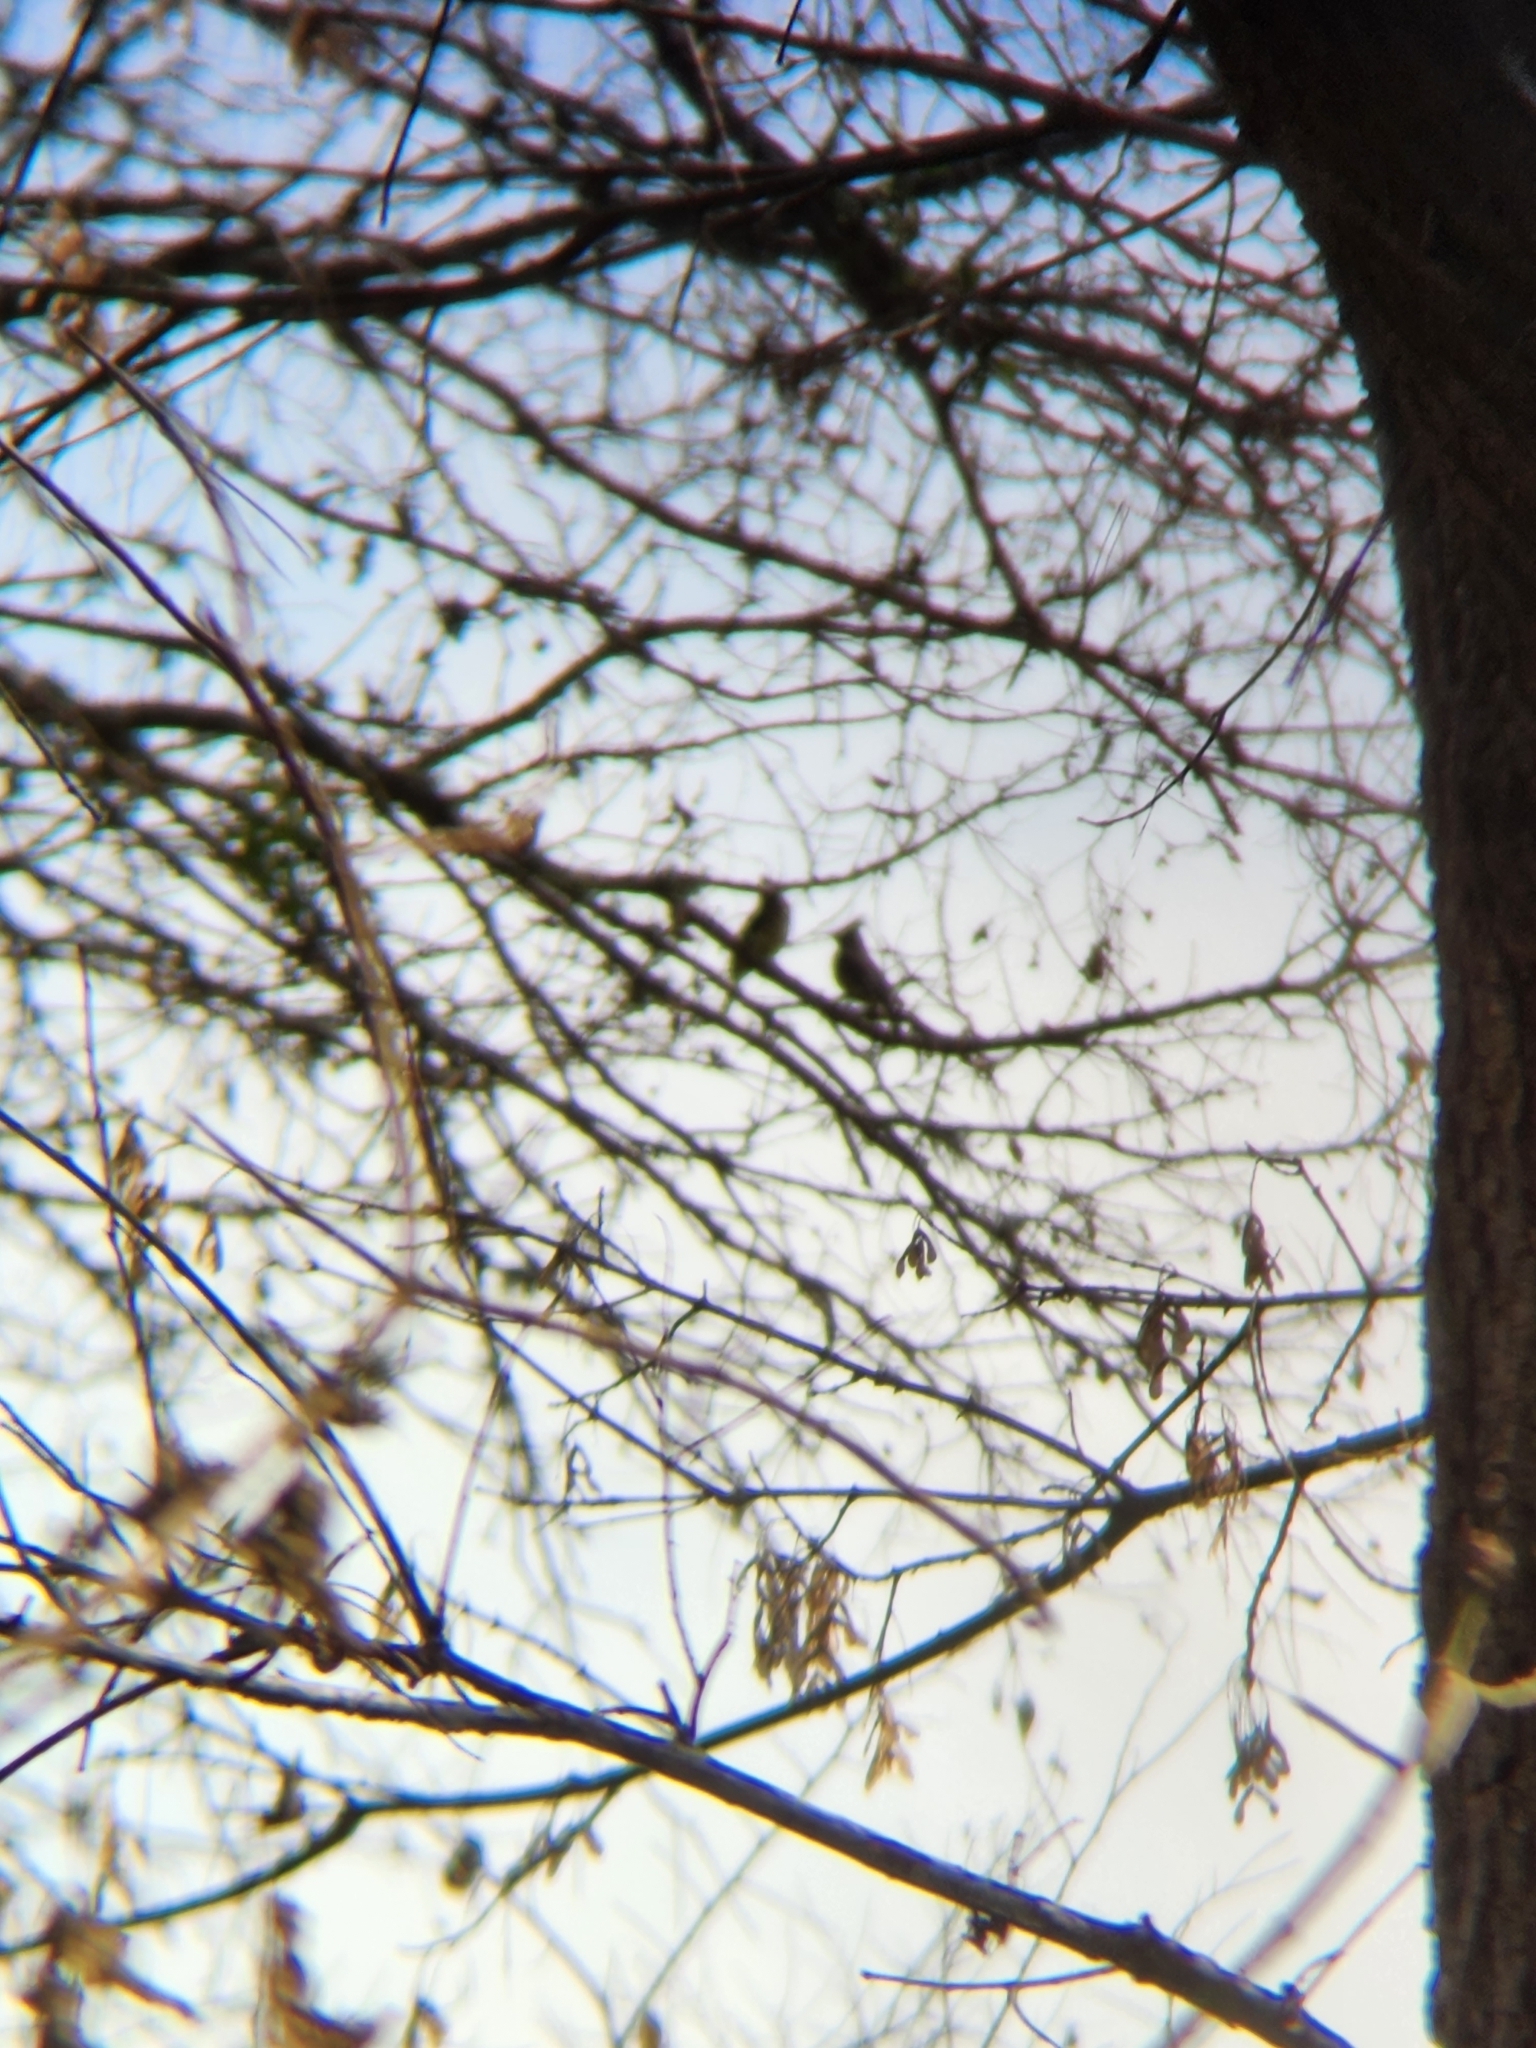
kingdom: Animalia
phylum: Chordata
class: Aves
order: Passeriformes
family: Bombycillidae
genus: Bombycilla
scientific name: Bombycilla cedrorum
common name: Cedar waxwing
